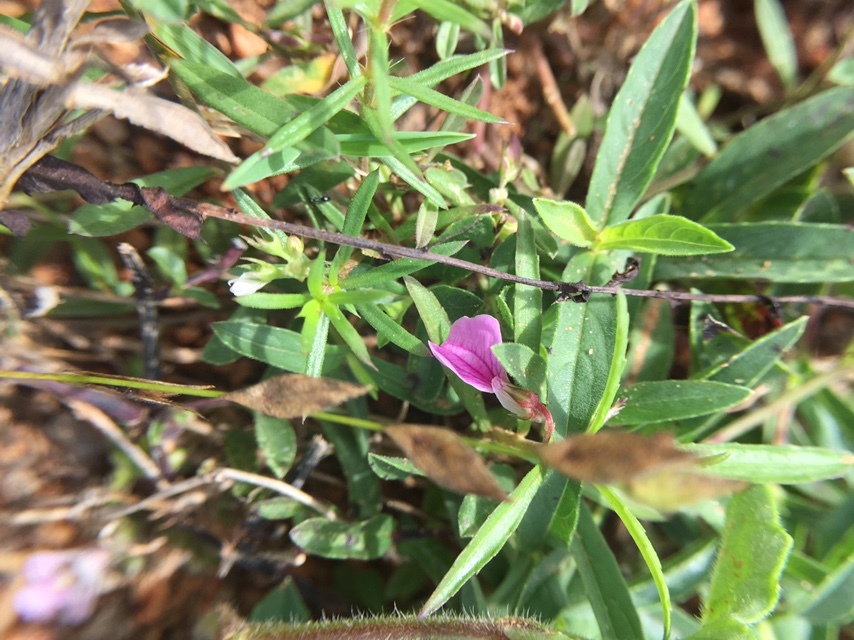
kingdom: Plantae
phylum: Tracheophyta
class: Magnoliopsida
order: Malpighiales
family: Violaceae
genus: Pigea
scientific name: Pigea enneasperma
